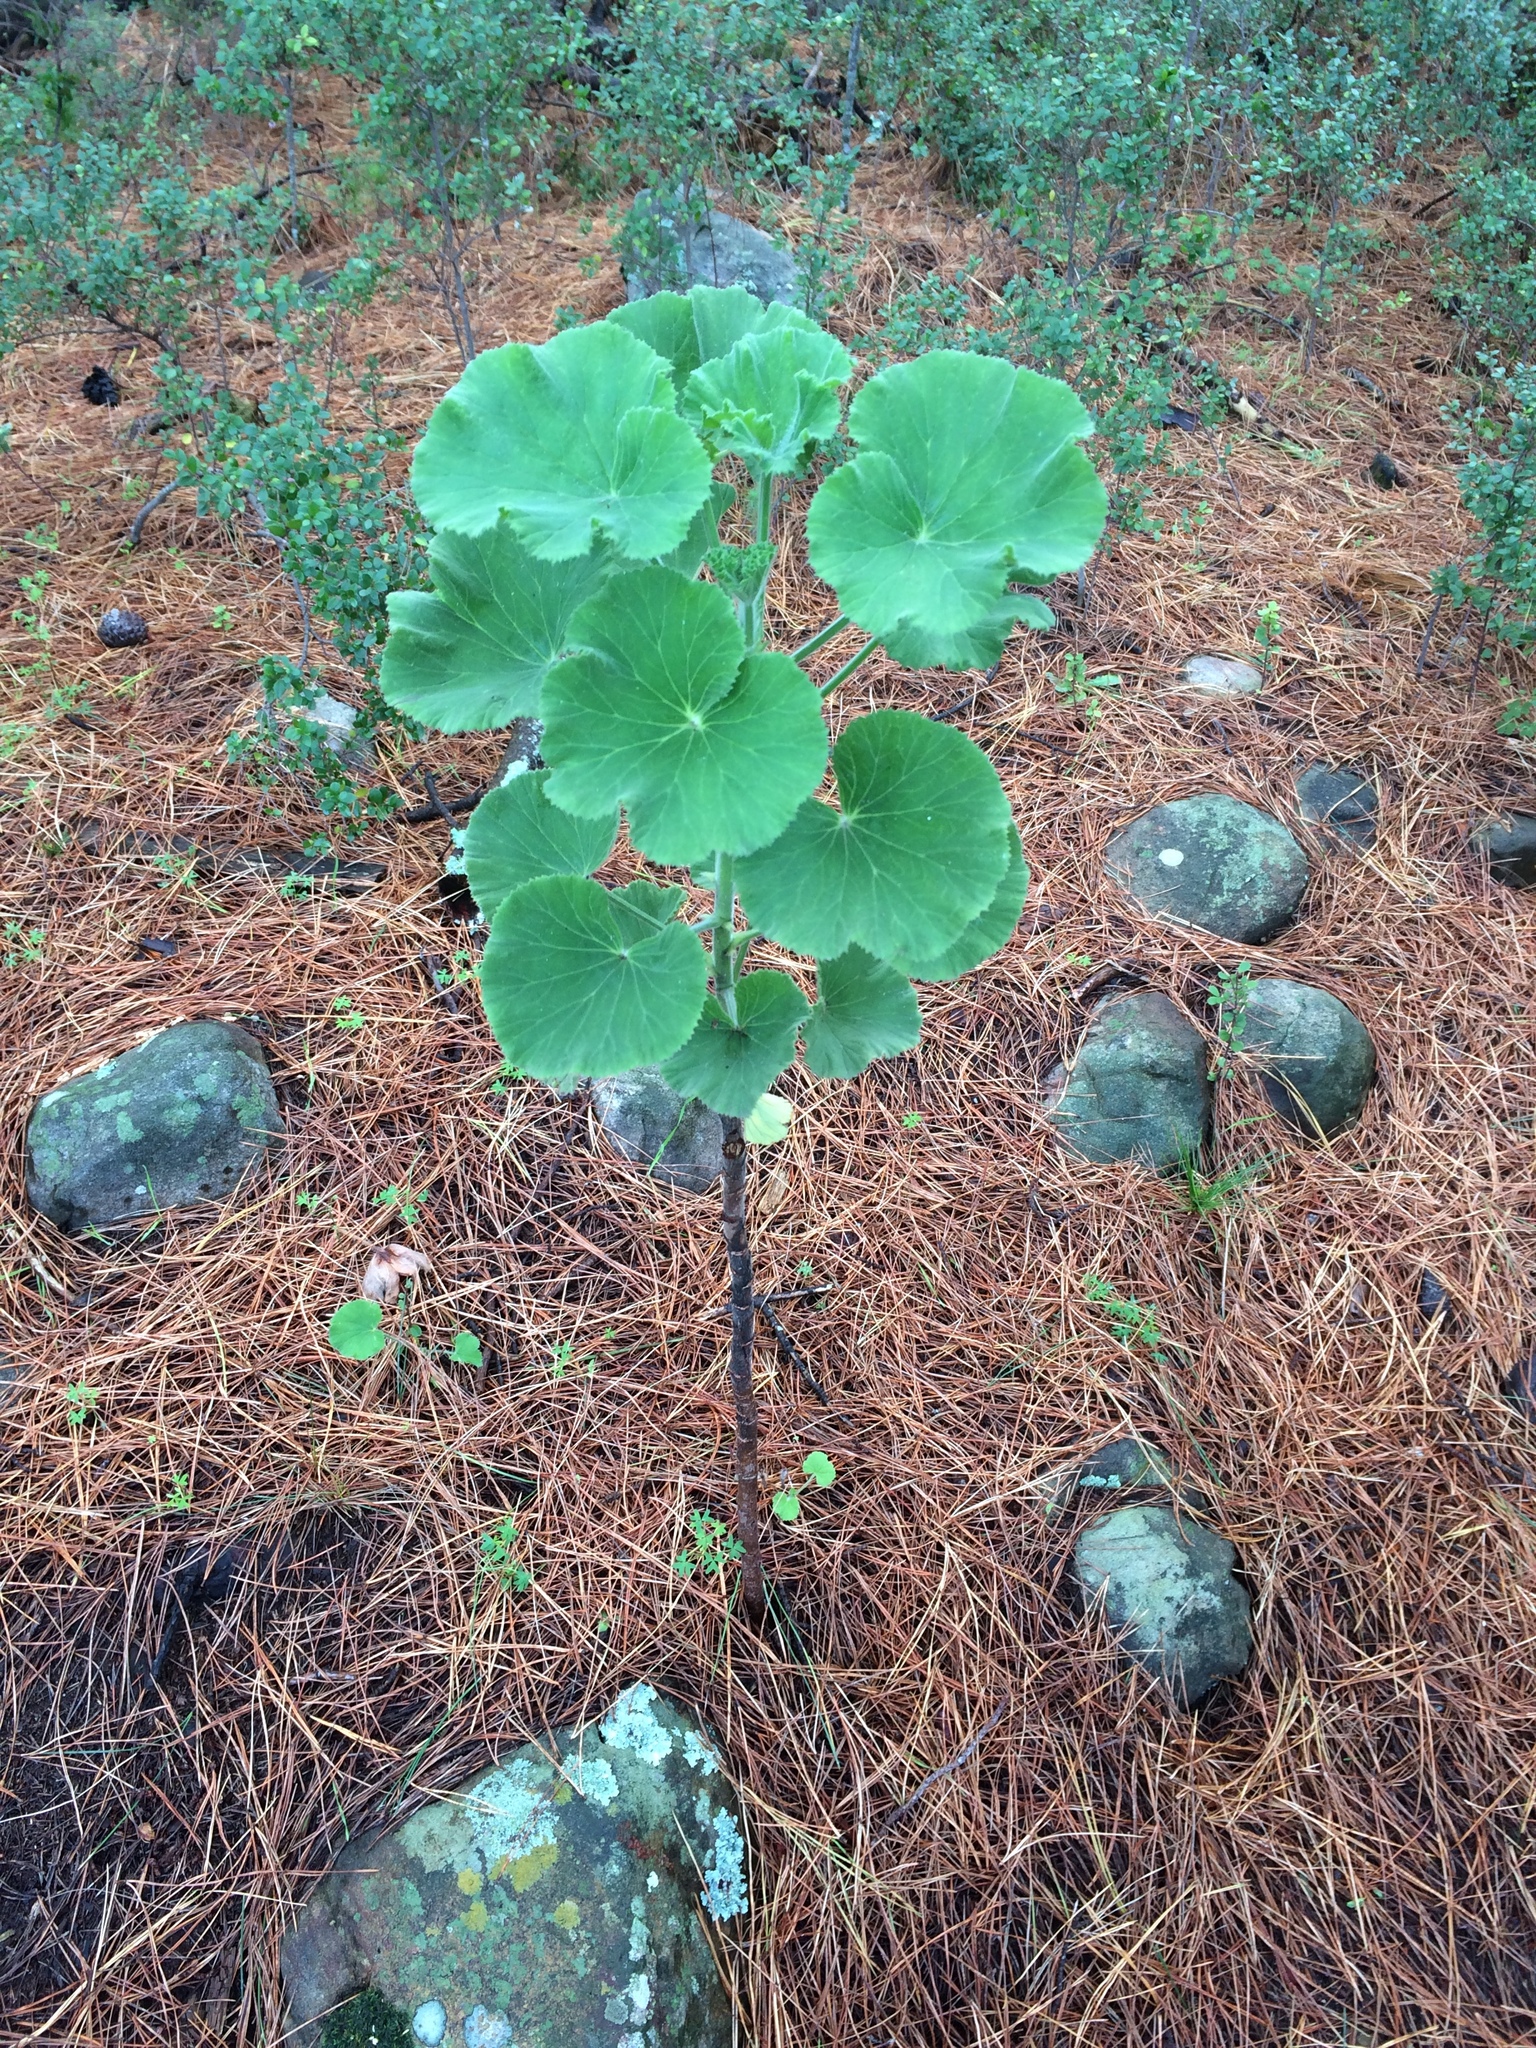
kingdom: Plantae
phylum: Tracheophyta
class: Magnoliopsida
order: Geraniales
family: Geraniaceae
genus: Pelargonium
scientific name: Pelargonium cucullatum
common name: Tree pelargonium
